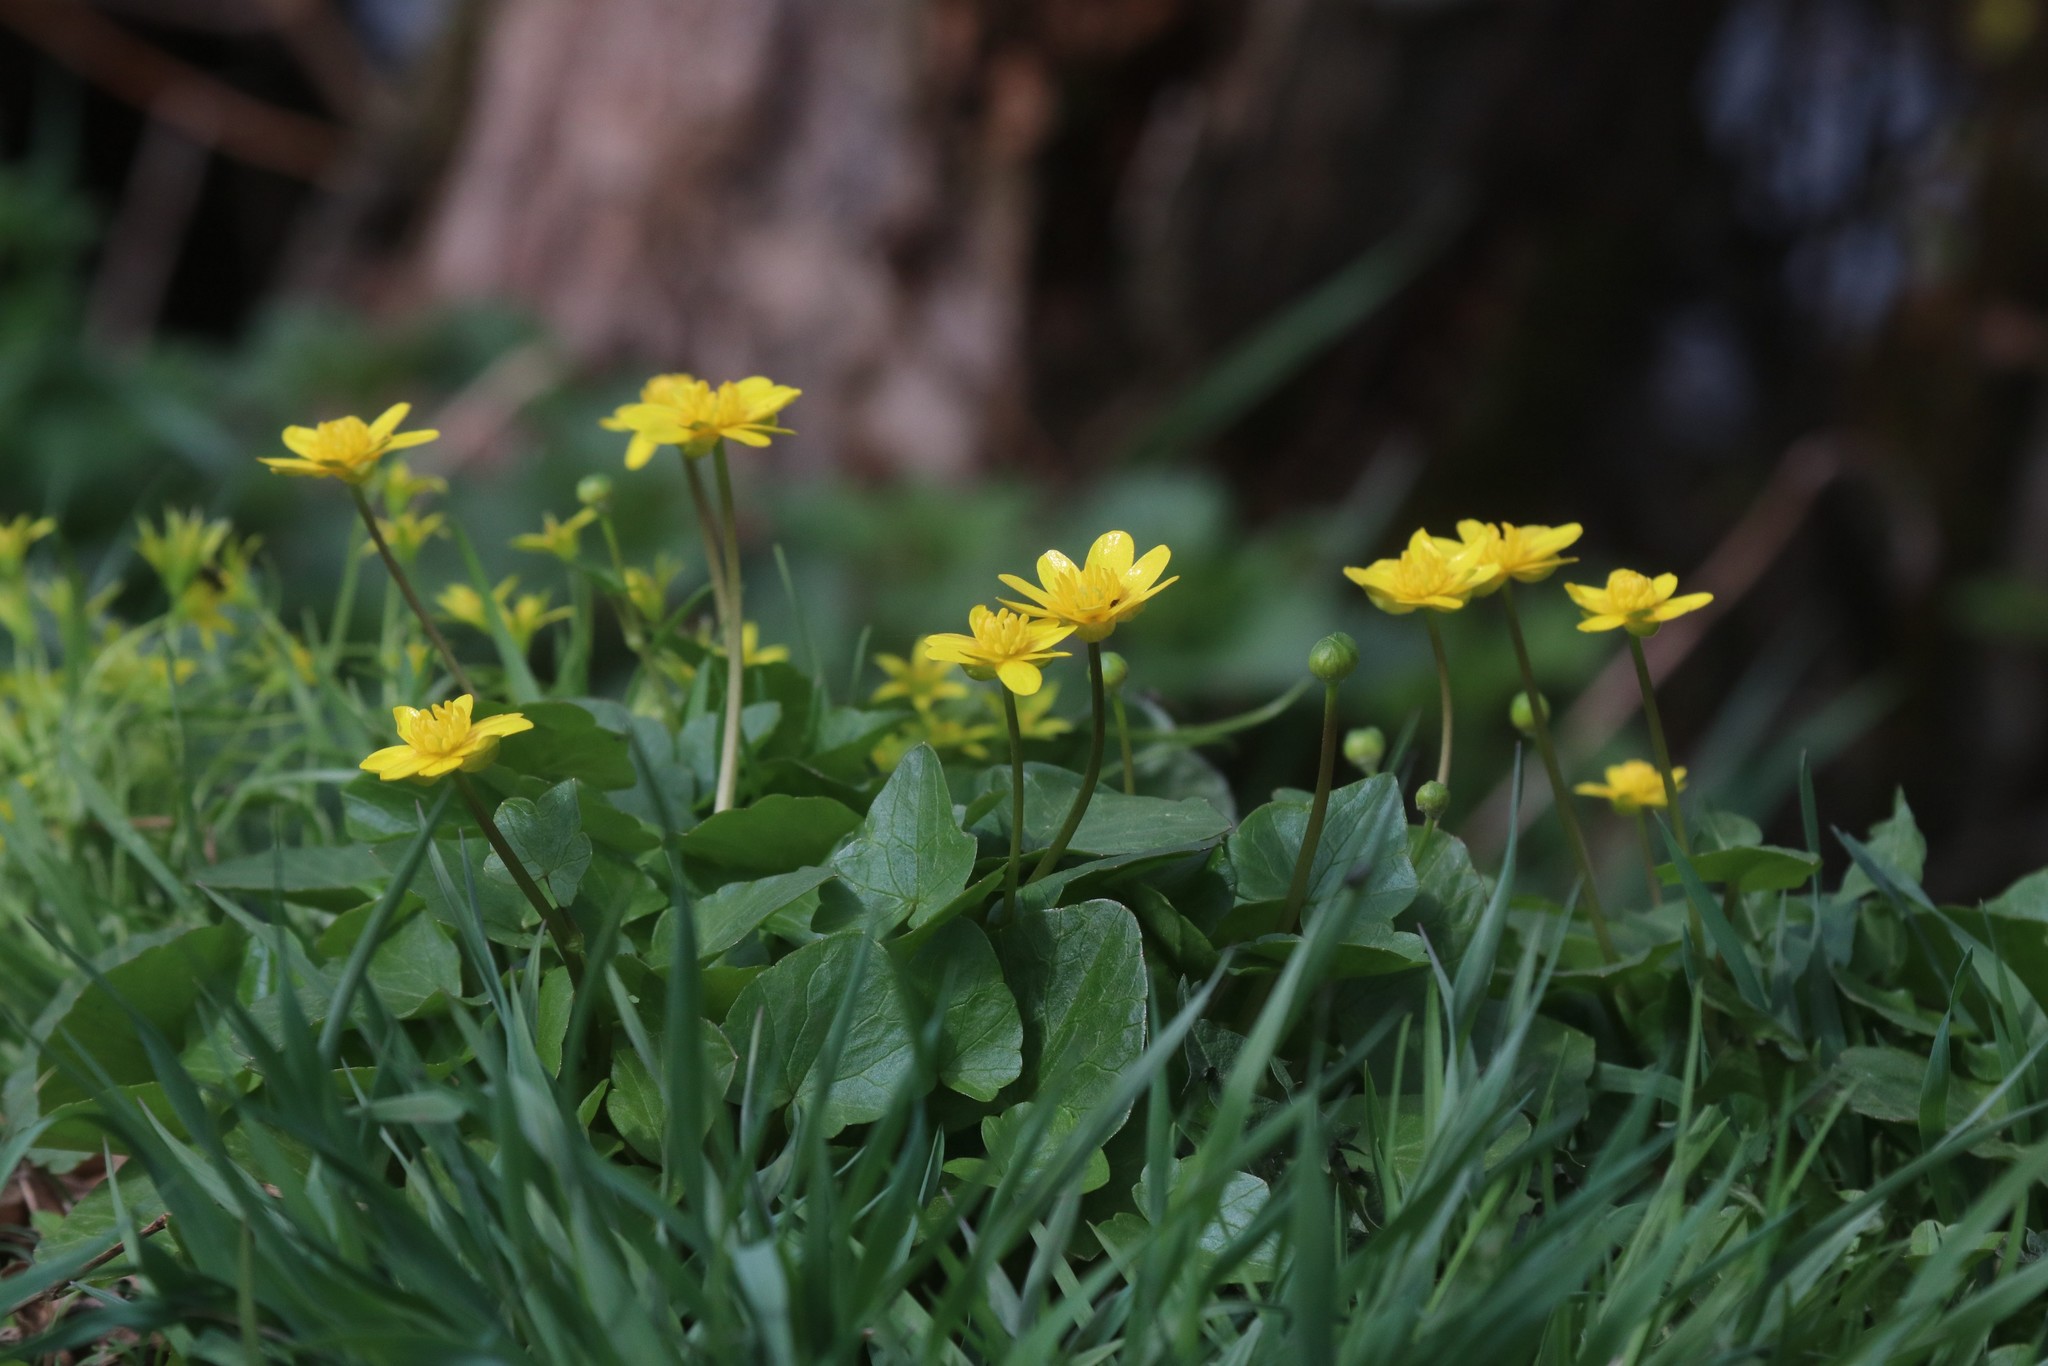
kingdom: Plantae
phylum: Tracheophyta
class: Magnoliopsida
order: Ranunculales
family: Ranunculaceae
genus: Ficaria
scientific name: Ficaria verna
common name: Lesser celandine
